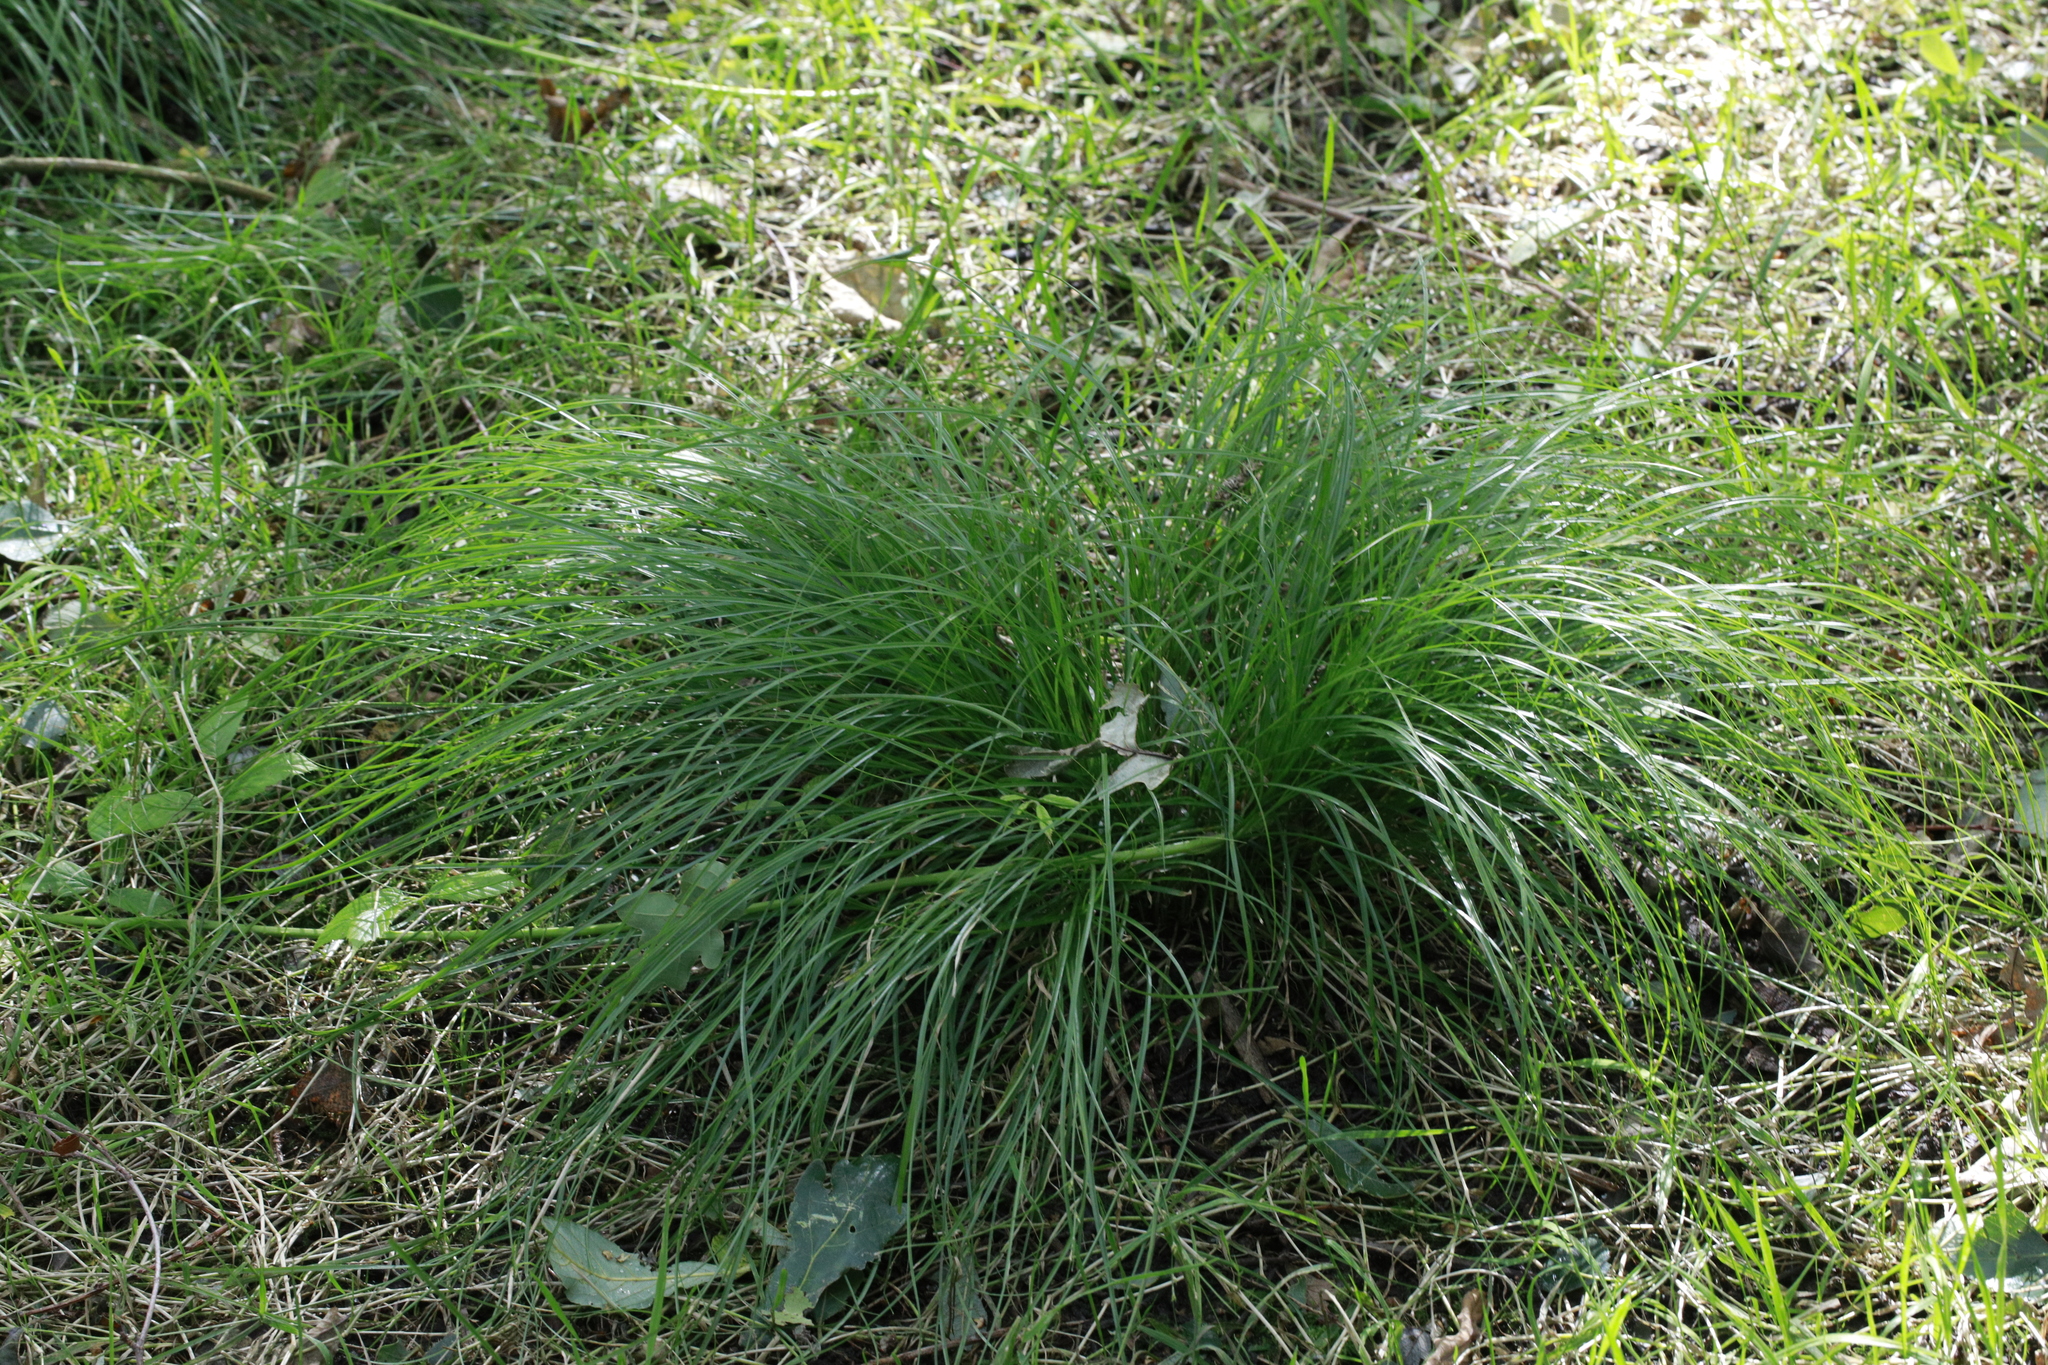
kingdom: Plantae
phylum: Tracheophyta
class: Liliopsida
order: Poales
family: Cyperaceae
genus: Carex
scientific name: Carex remota
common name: Remote sedge
